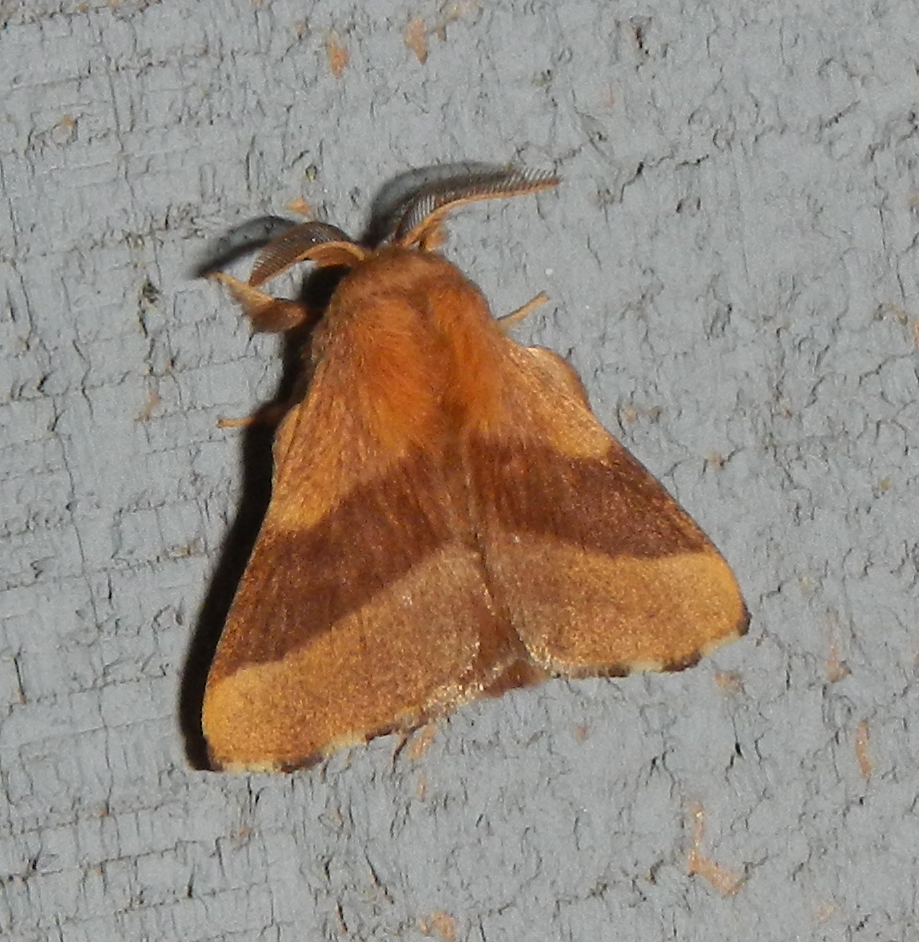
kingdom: Animalia
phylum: Arthropoda
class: Insecta
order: Lepidoptera
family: Lasiocampidae
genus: Malacosoma
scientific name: Malacosoma disstria
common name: Forest tent caterpillar
